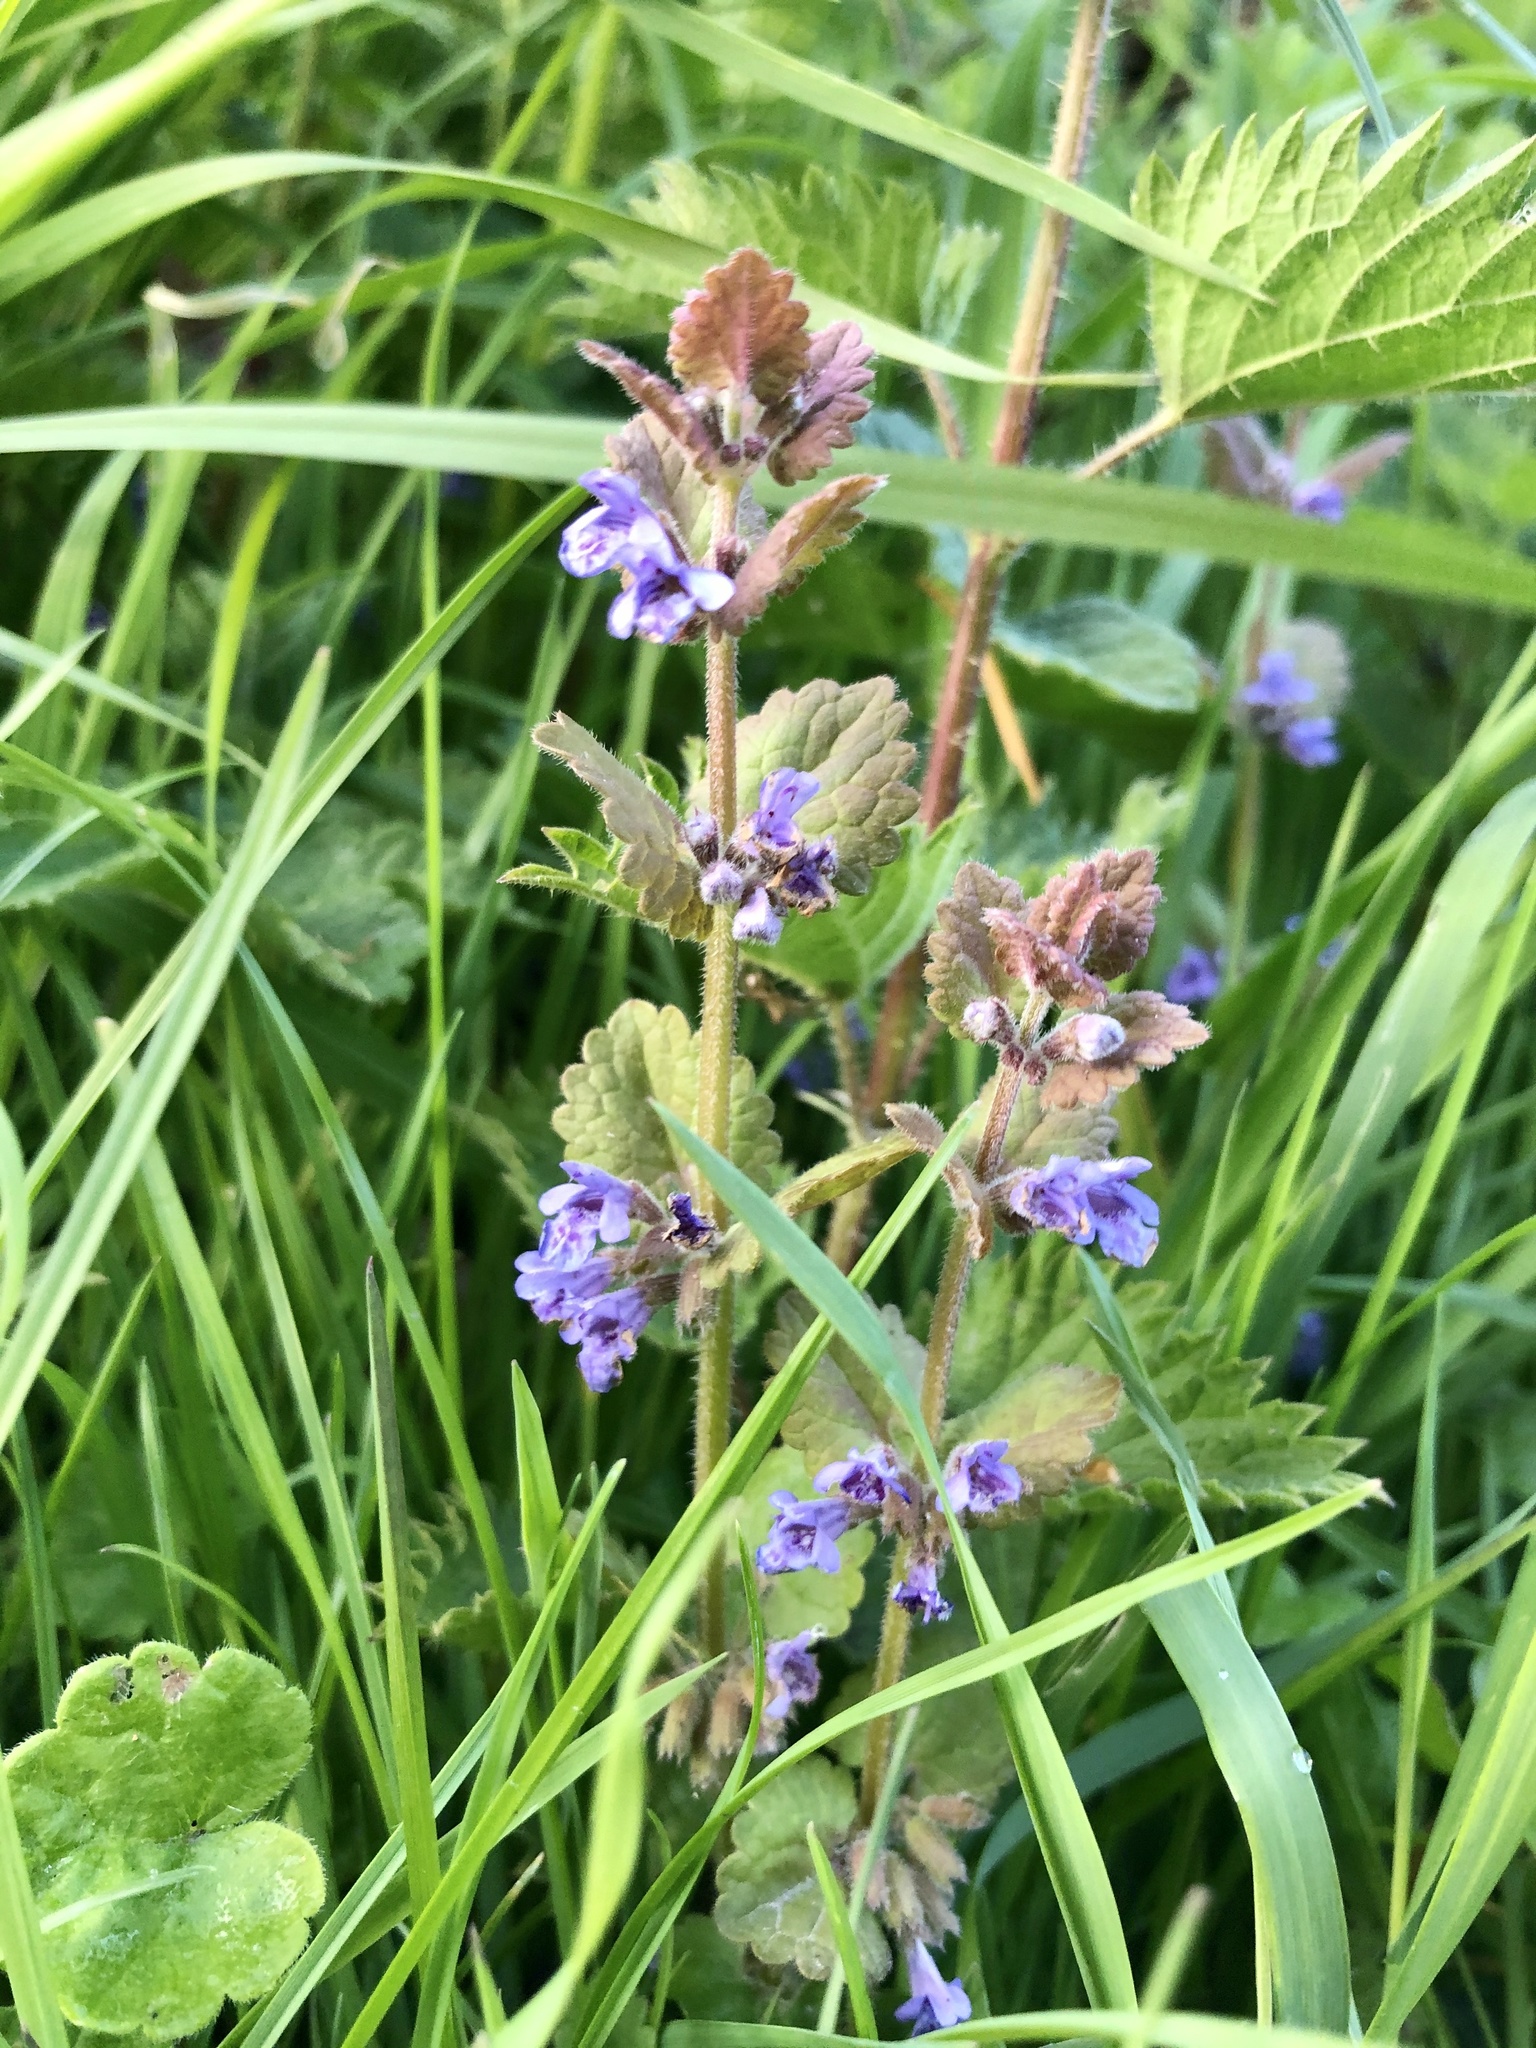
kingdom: Plantae
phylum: Tracheophyta
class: Magnoliopsida
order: Lamiales
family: Lamiaceae
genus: Glechoma
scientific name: Glechoma hederacea
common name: Ground ivy
